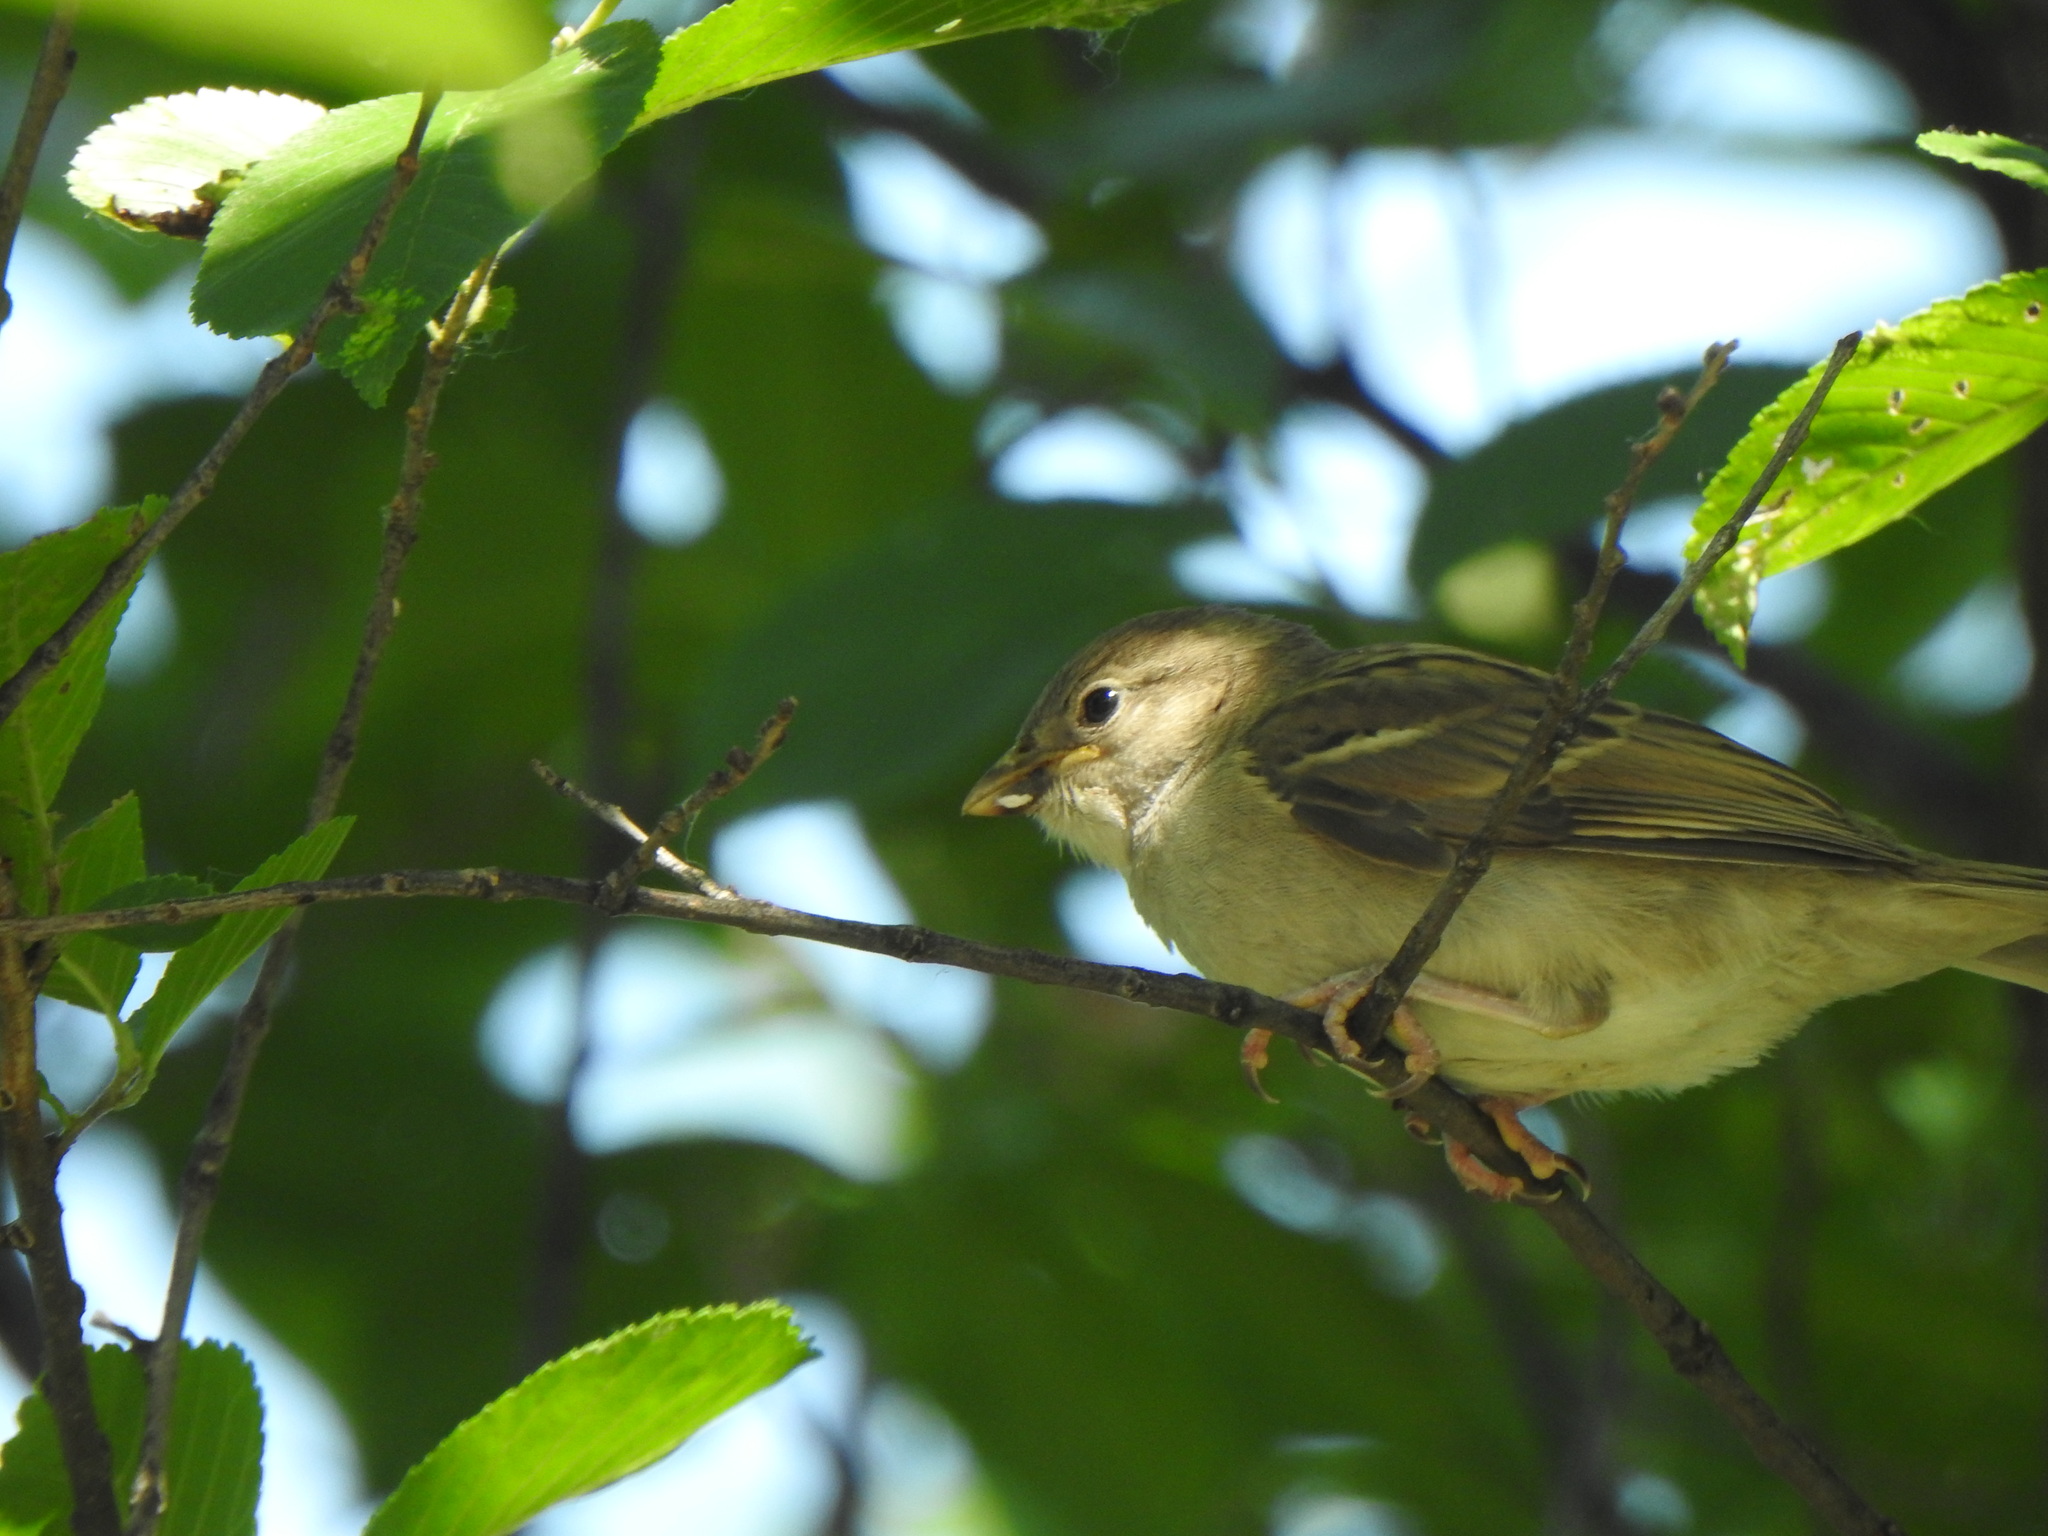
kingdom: Animalia
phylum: Chordata
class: Aves
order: Passeriformes
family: Passeridae
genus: Passer
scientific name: Passer domesticus
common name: House sparrow
